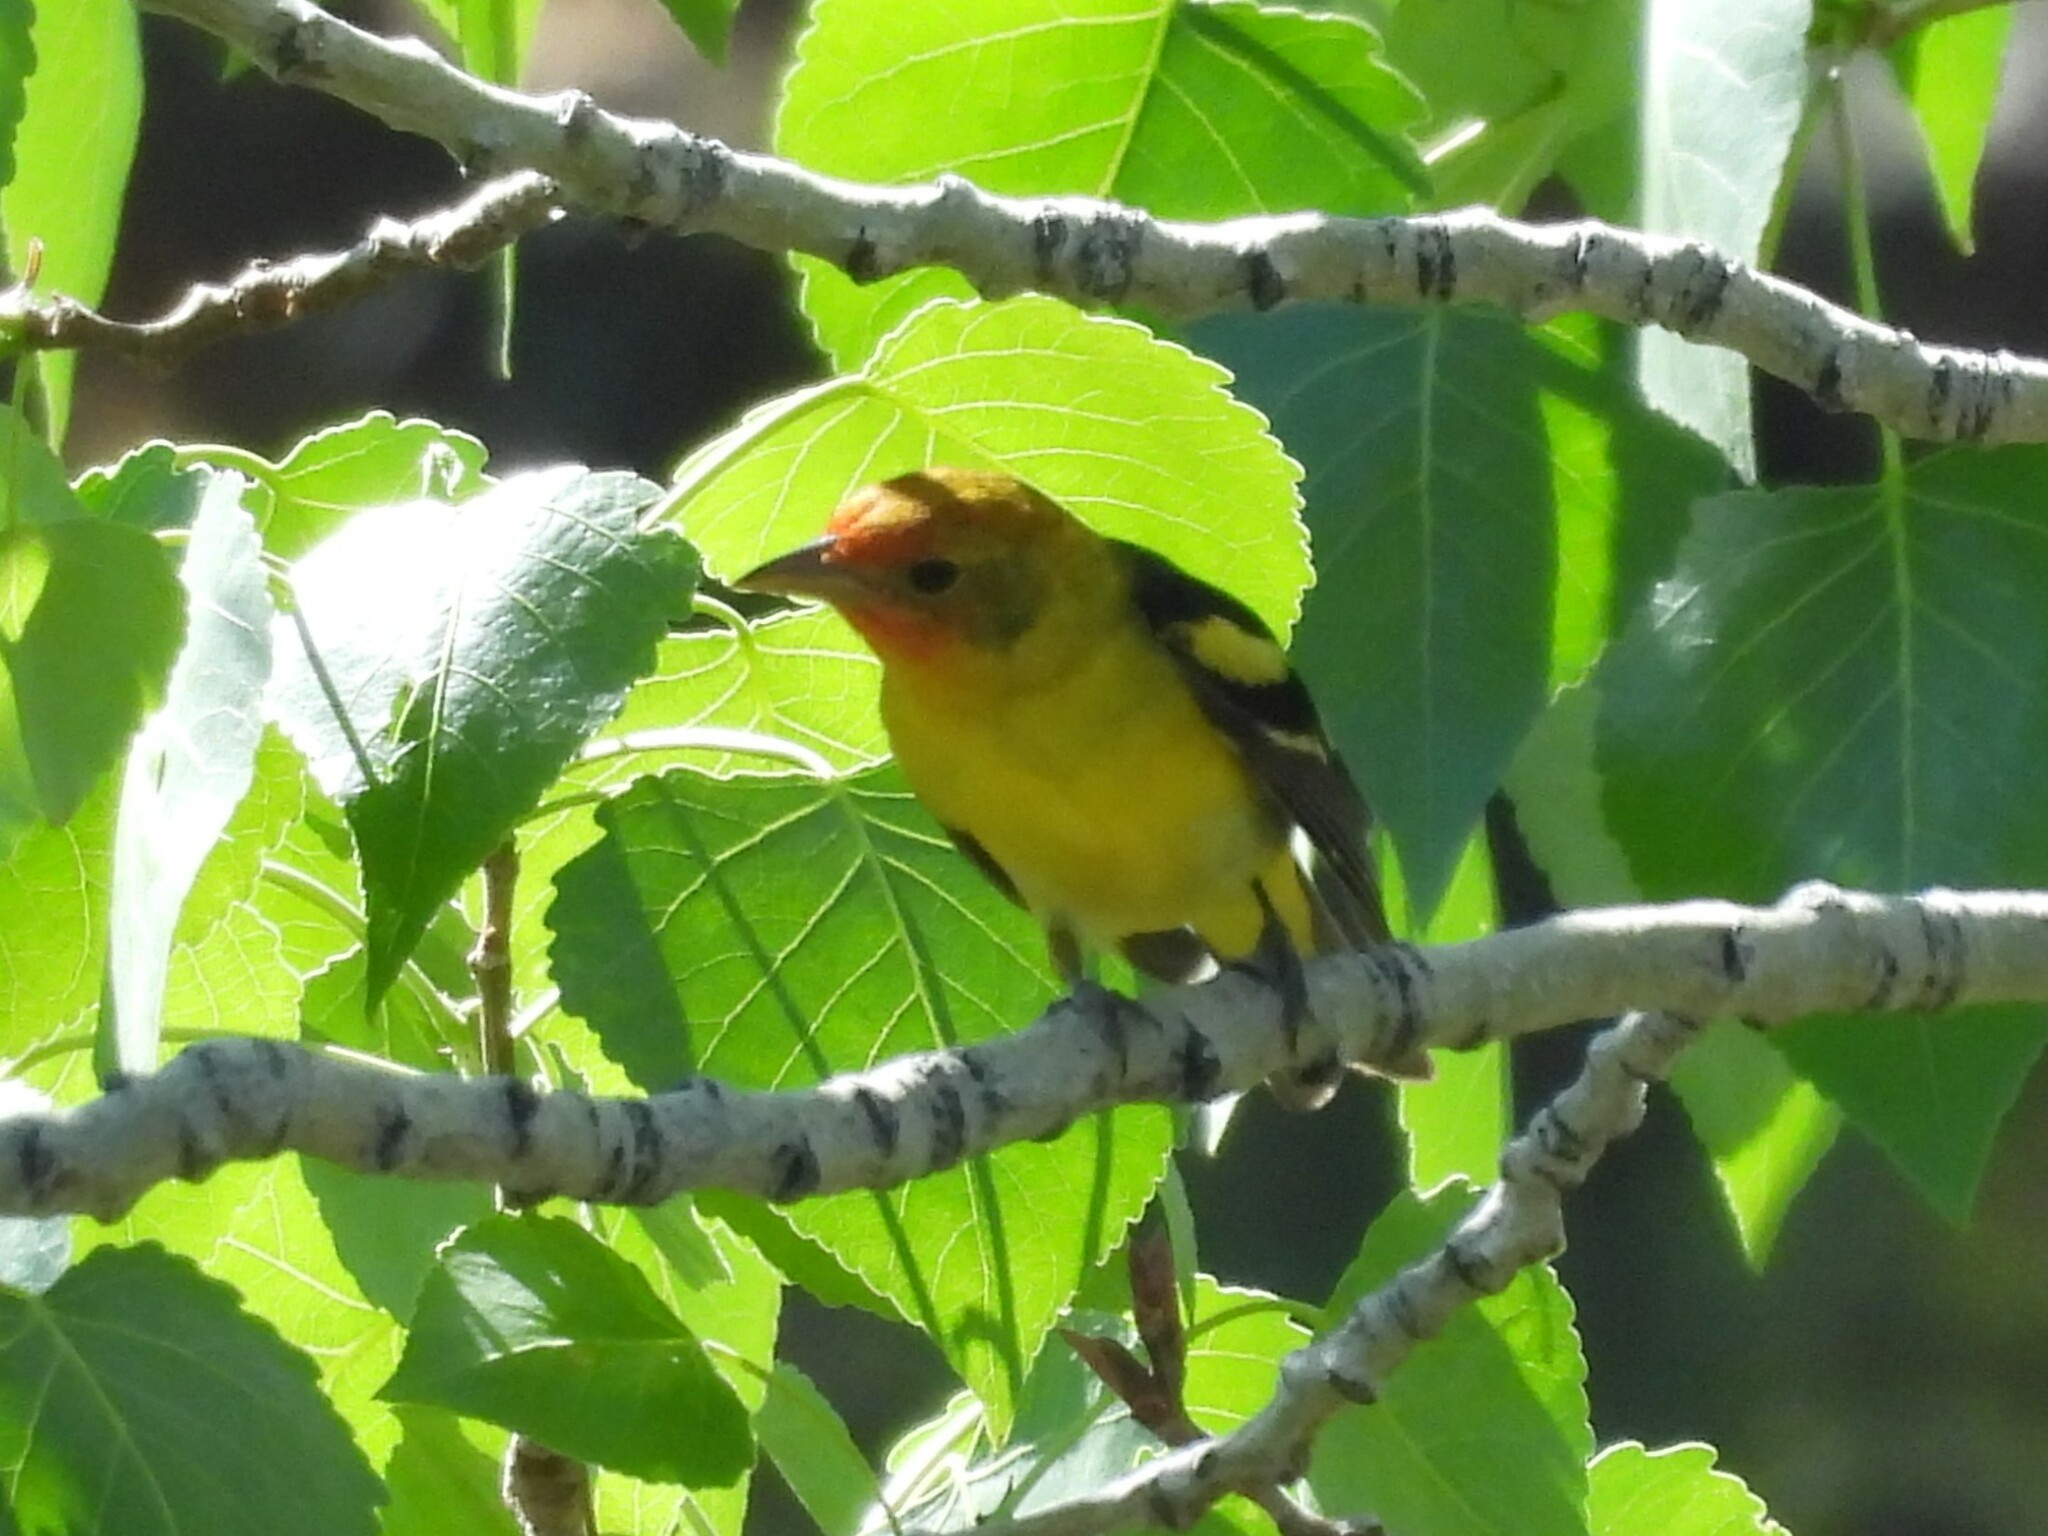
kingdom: Animalia
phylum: Chordata
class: Aves
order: Passeriformes
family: Cardinalidae
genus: Piranga
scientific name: Piranga ludoviciana
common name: Western tanager
